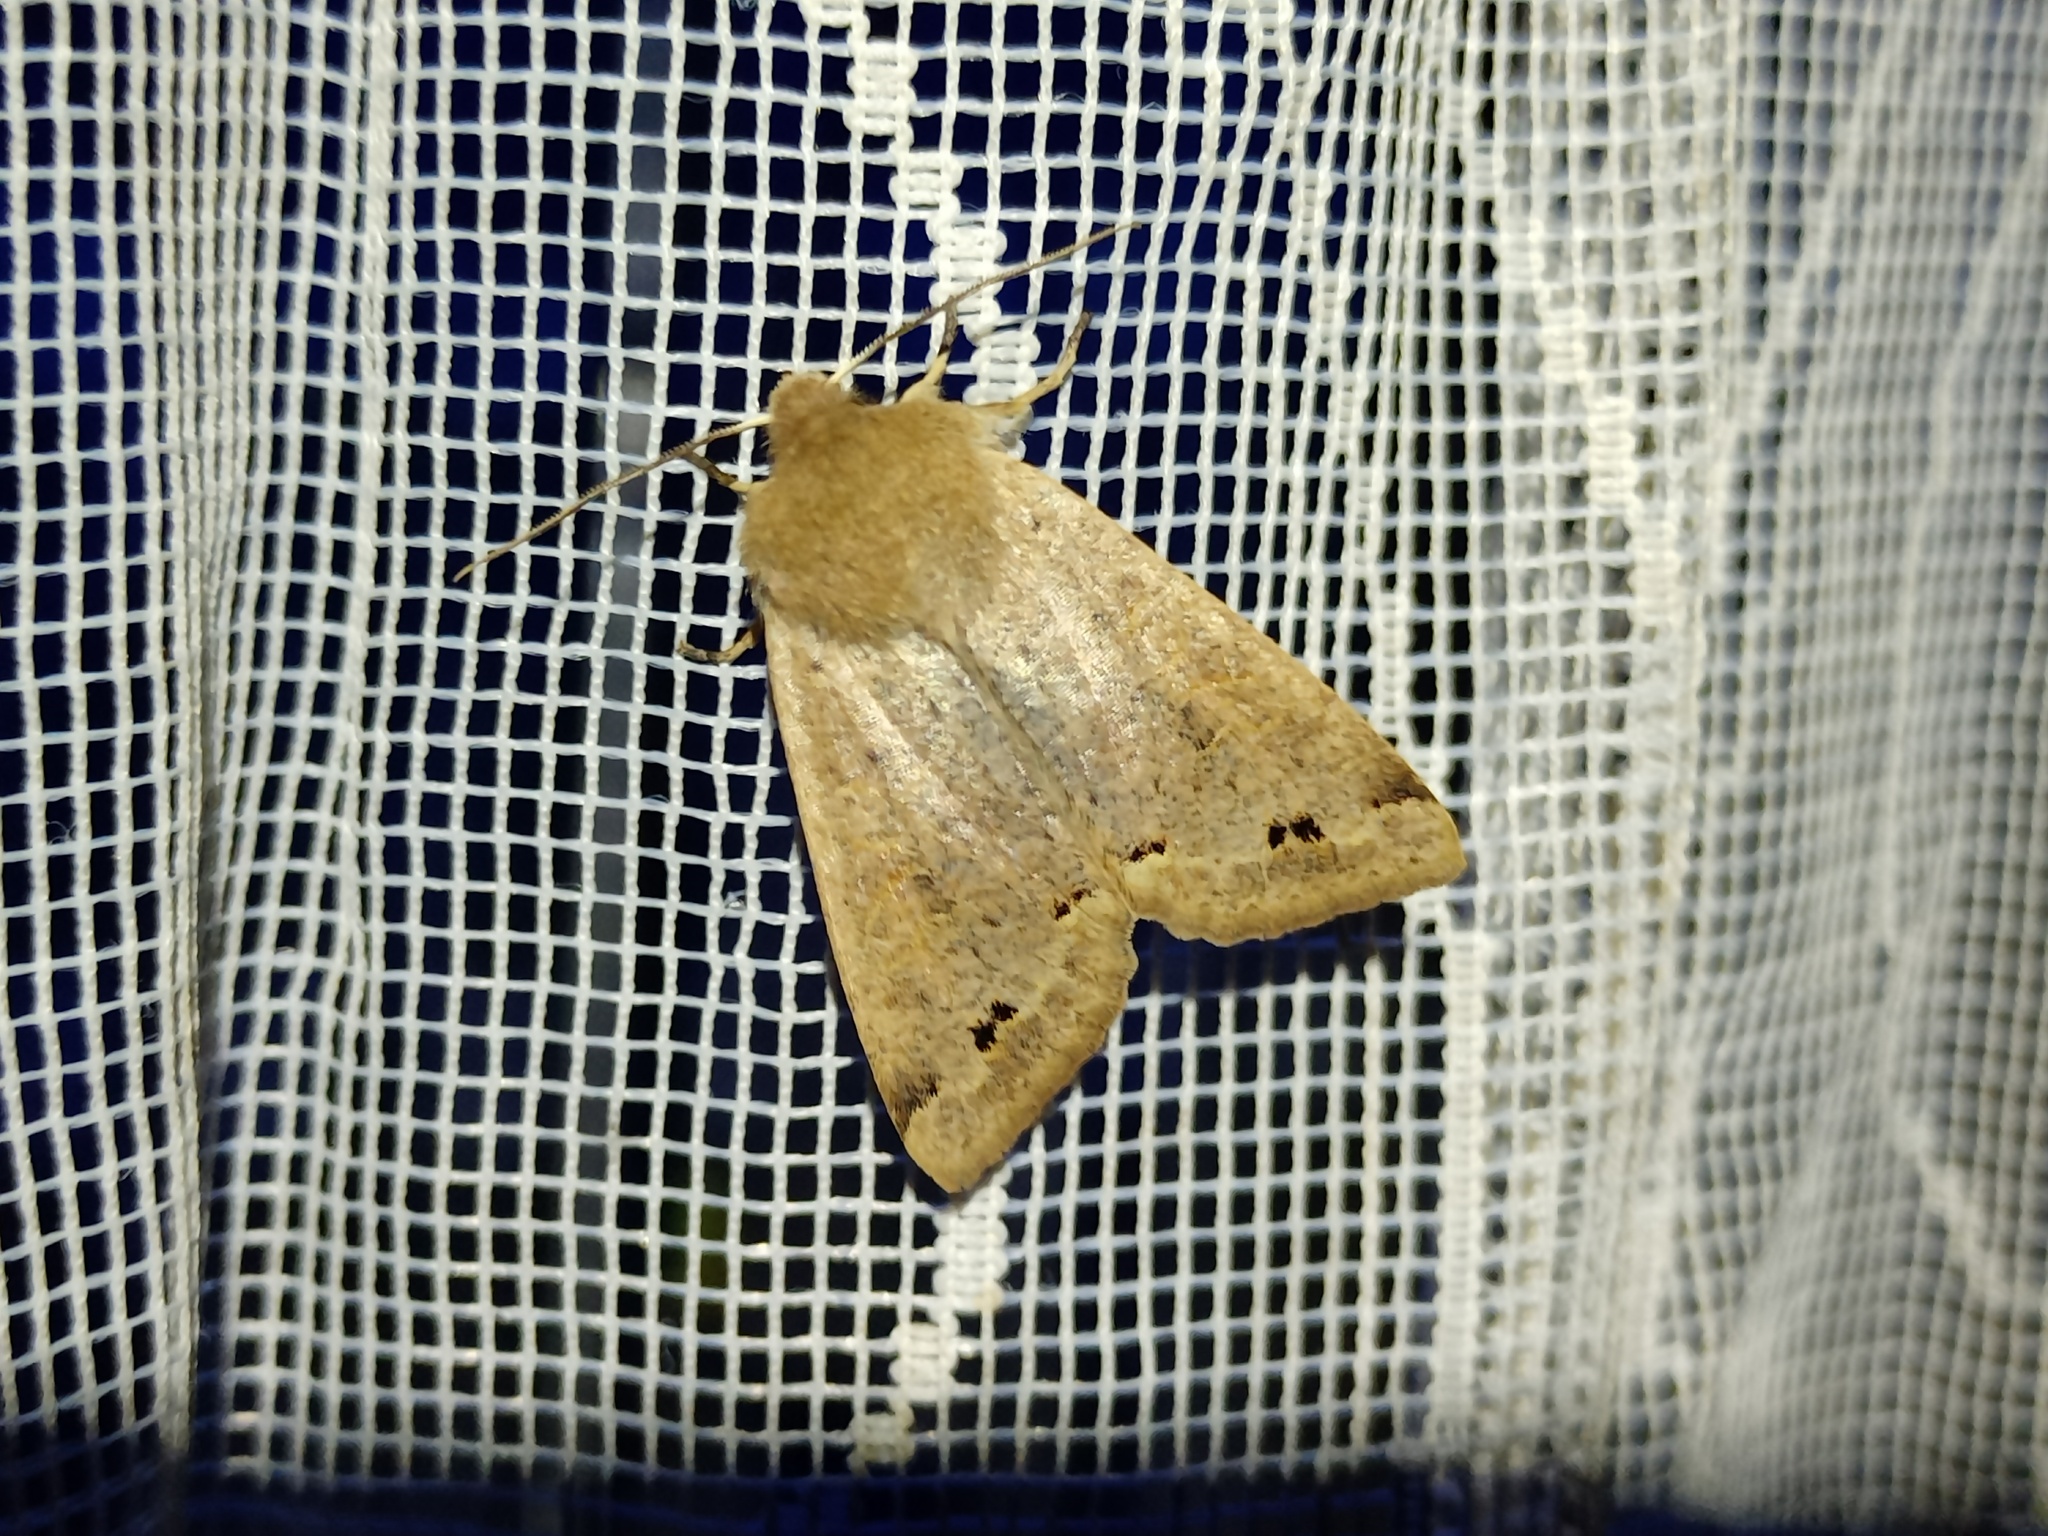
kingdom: Animalia
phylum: Arthropoda
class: Insecta
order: Lepidoptera
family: Noctuidae
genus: Anorthoa
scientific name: Anorthoa munda
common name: Twin-spotted quaker
